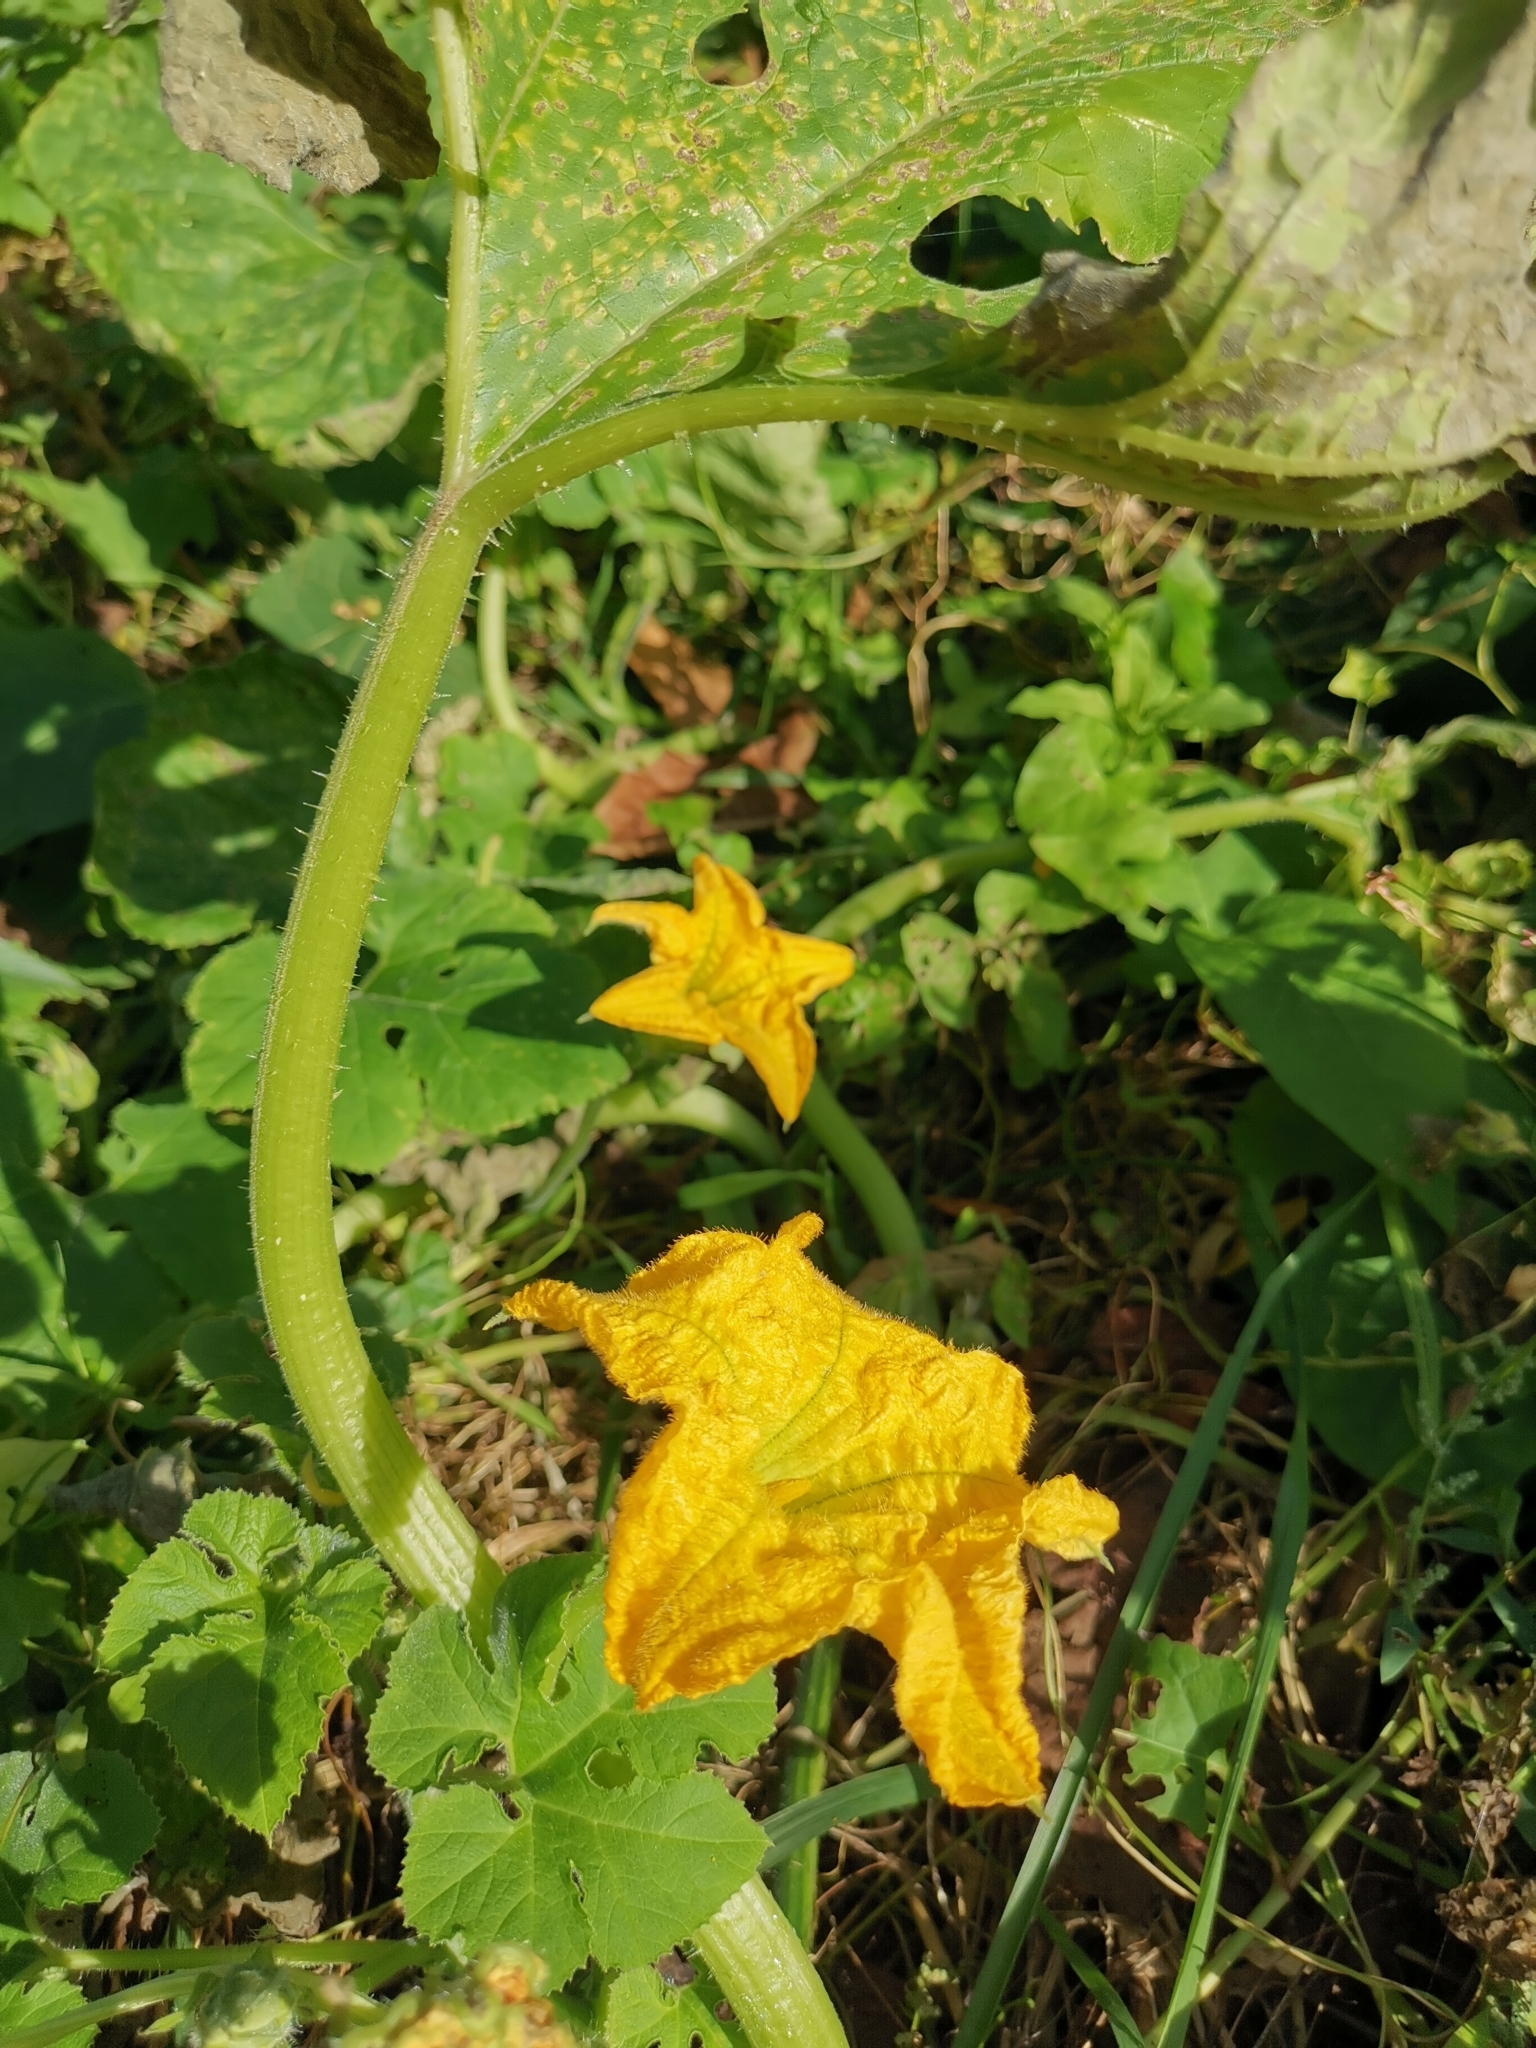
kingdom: Plantae
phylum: Tracheophyta
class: Magnoliopsida
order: Cucurbitales
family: Cucurbitaceae
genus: Cucurbita
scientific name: Cucurbita pepo
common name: Marrow
